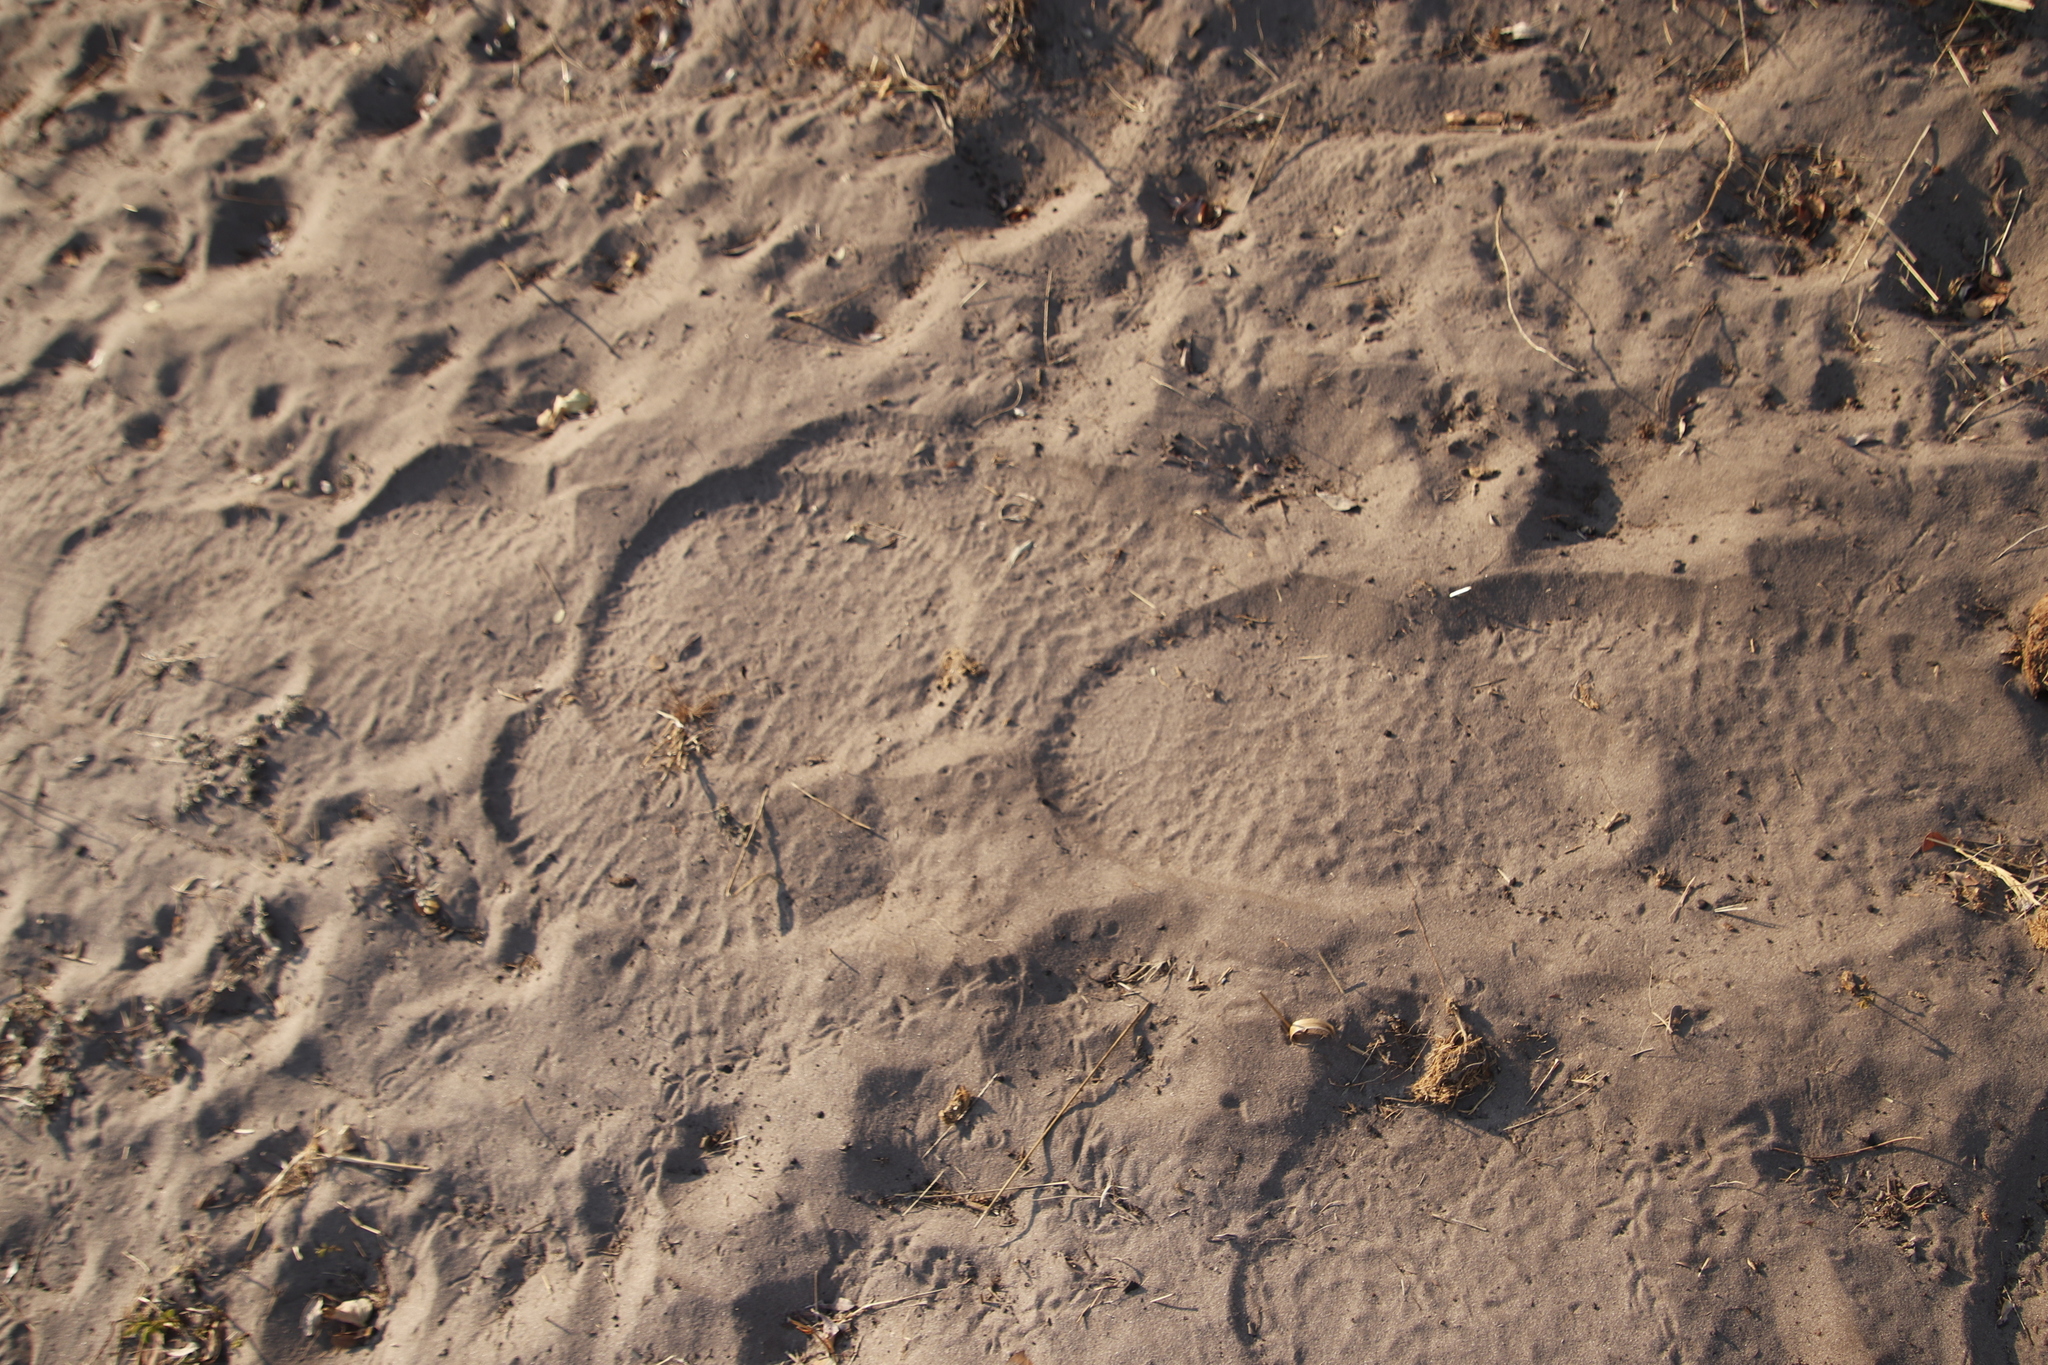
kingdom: Animalia
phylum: Chordata
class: Mammalia
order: Proboscidea
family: Elephantidae
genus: Loxodonta
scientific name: Loxodonta africana
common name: African elephant
